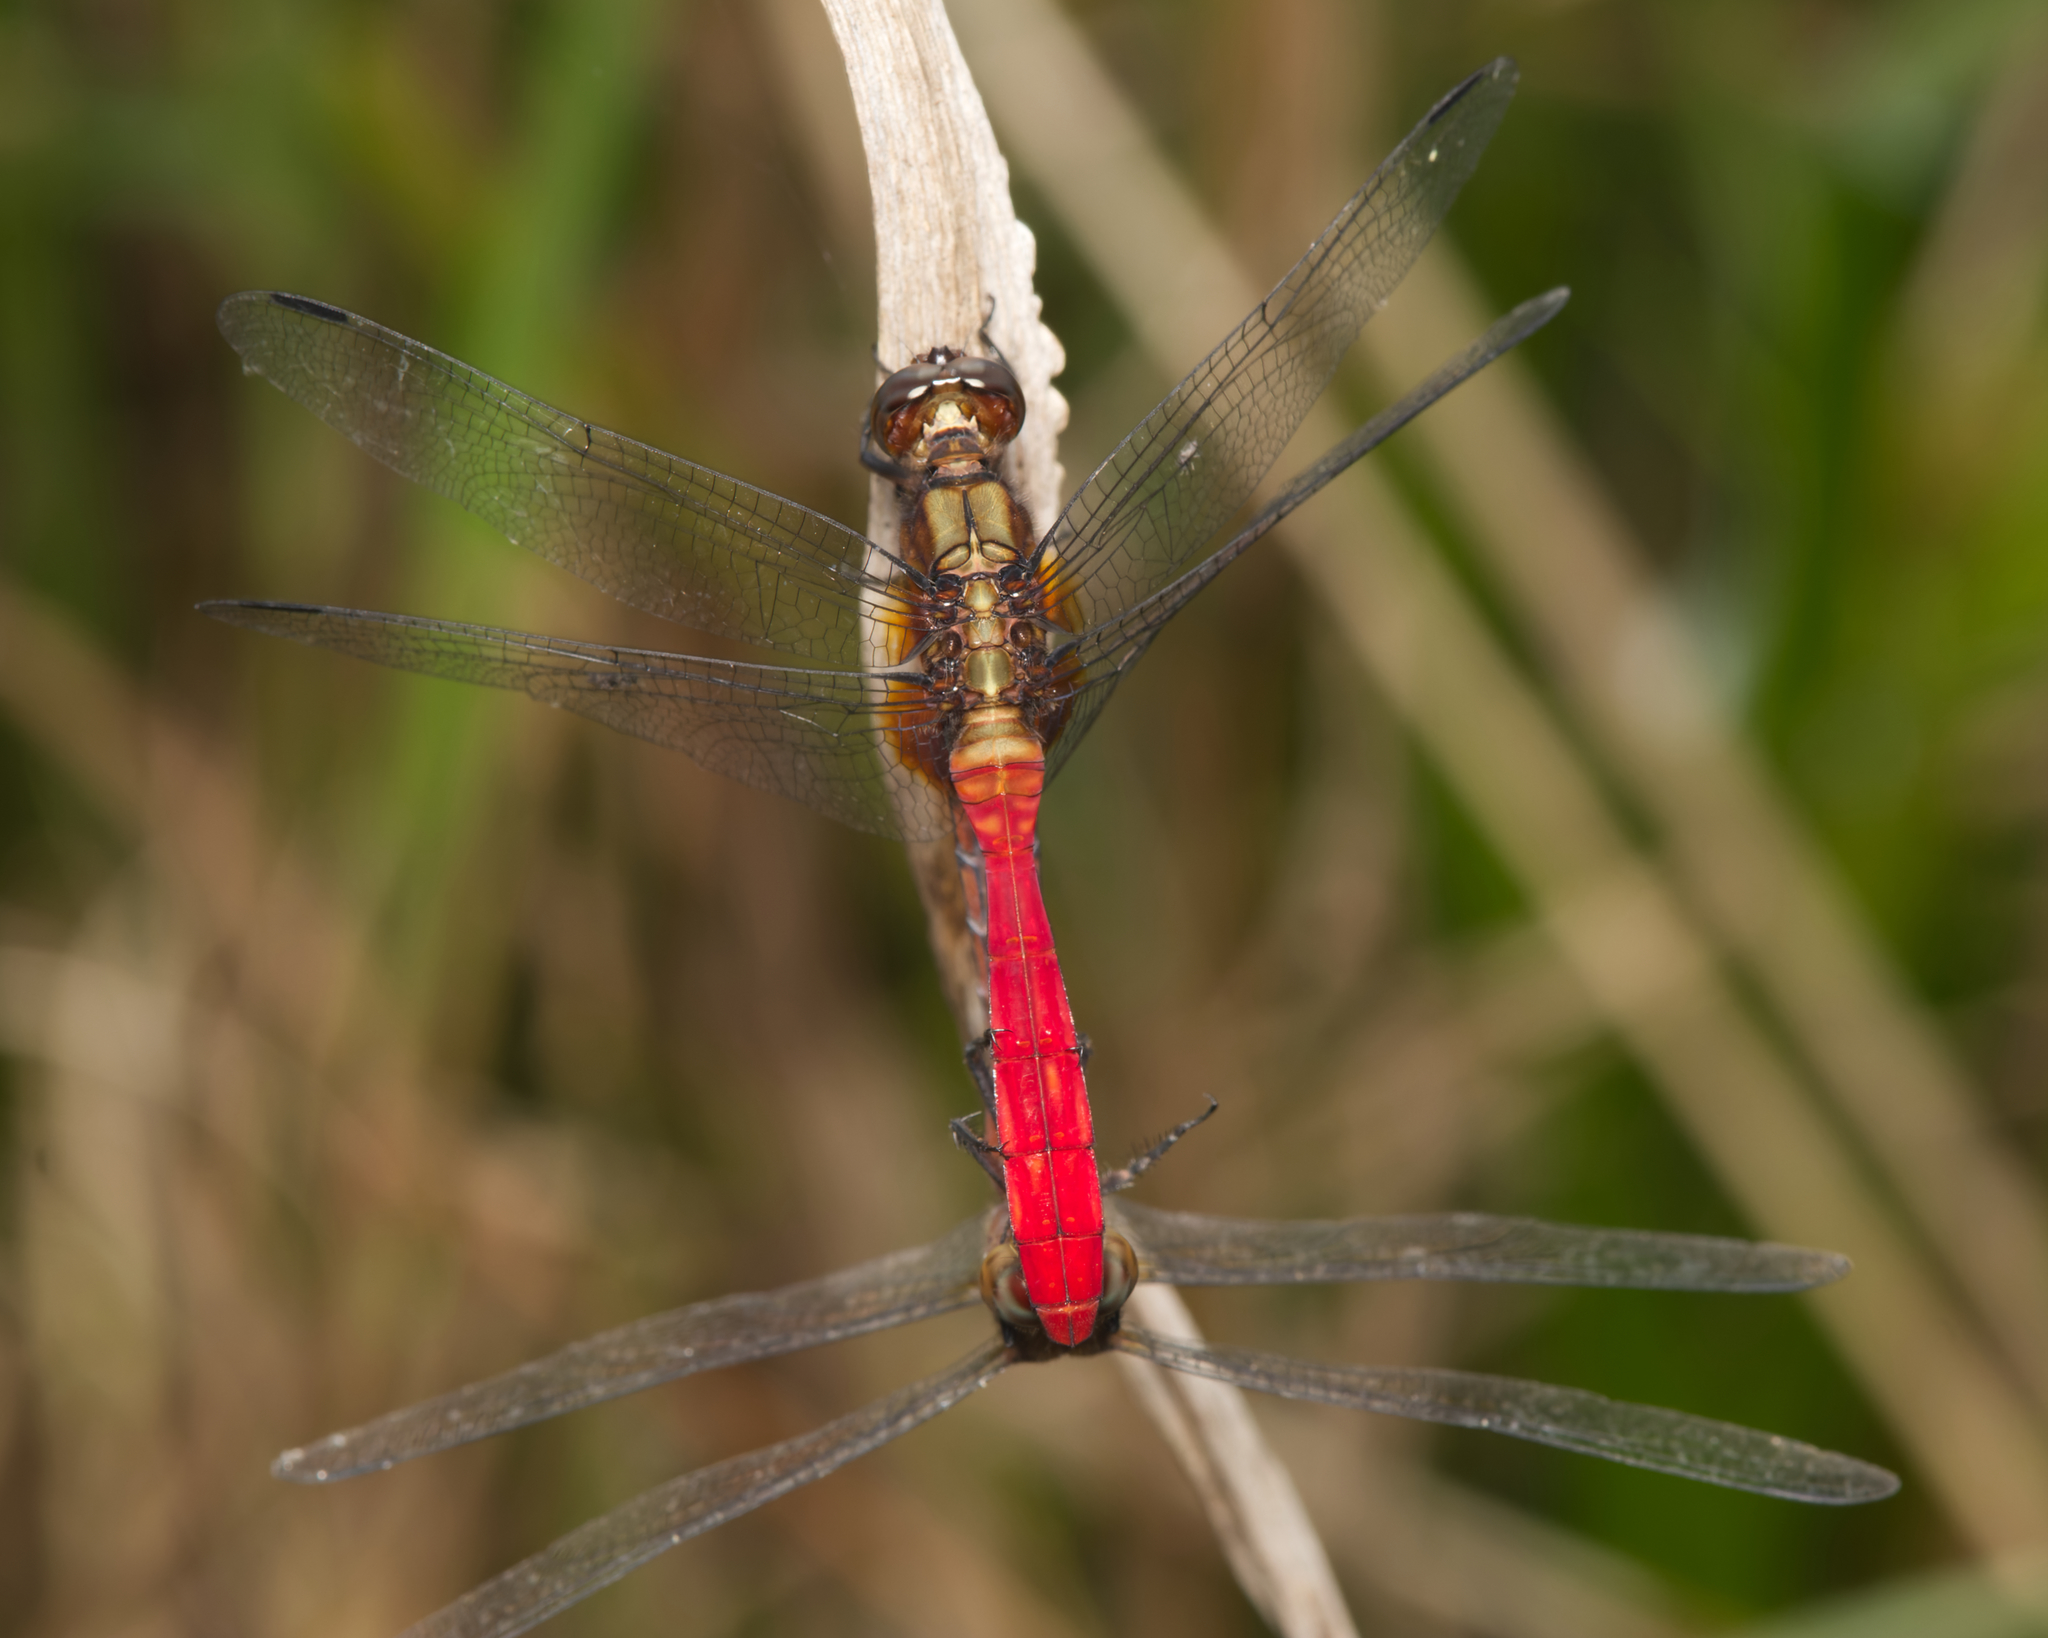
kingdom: Animalia
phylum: Arthropoda
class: Insecta
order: Odonata
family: Libellulidae
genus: Orthetrum
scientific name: Orthetrum villosovittatum
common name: Firery skimmer
